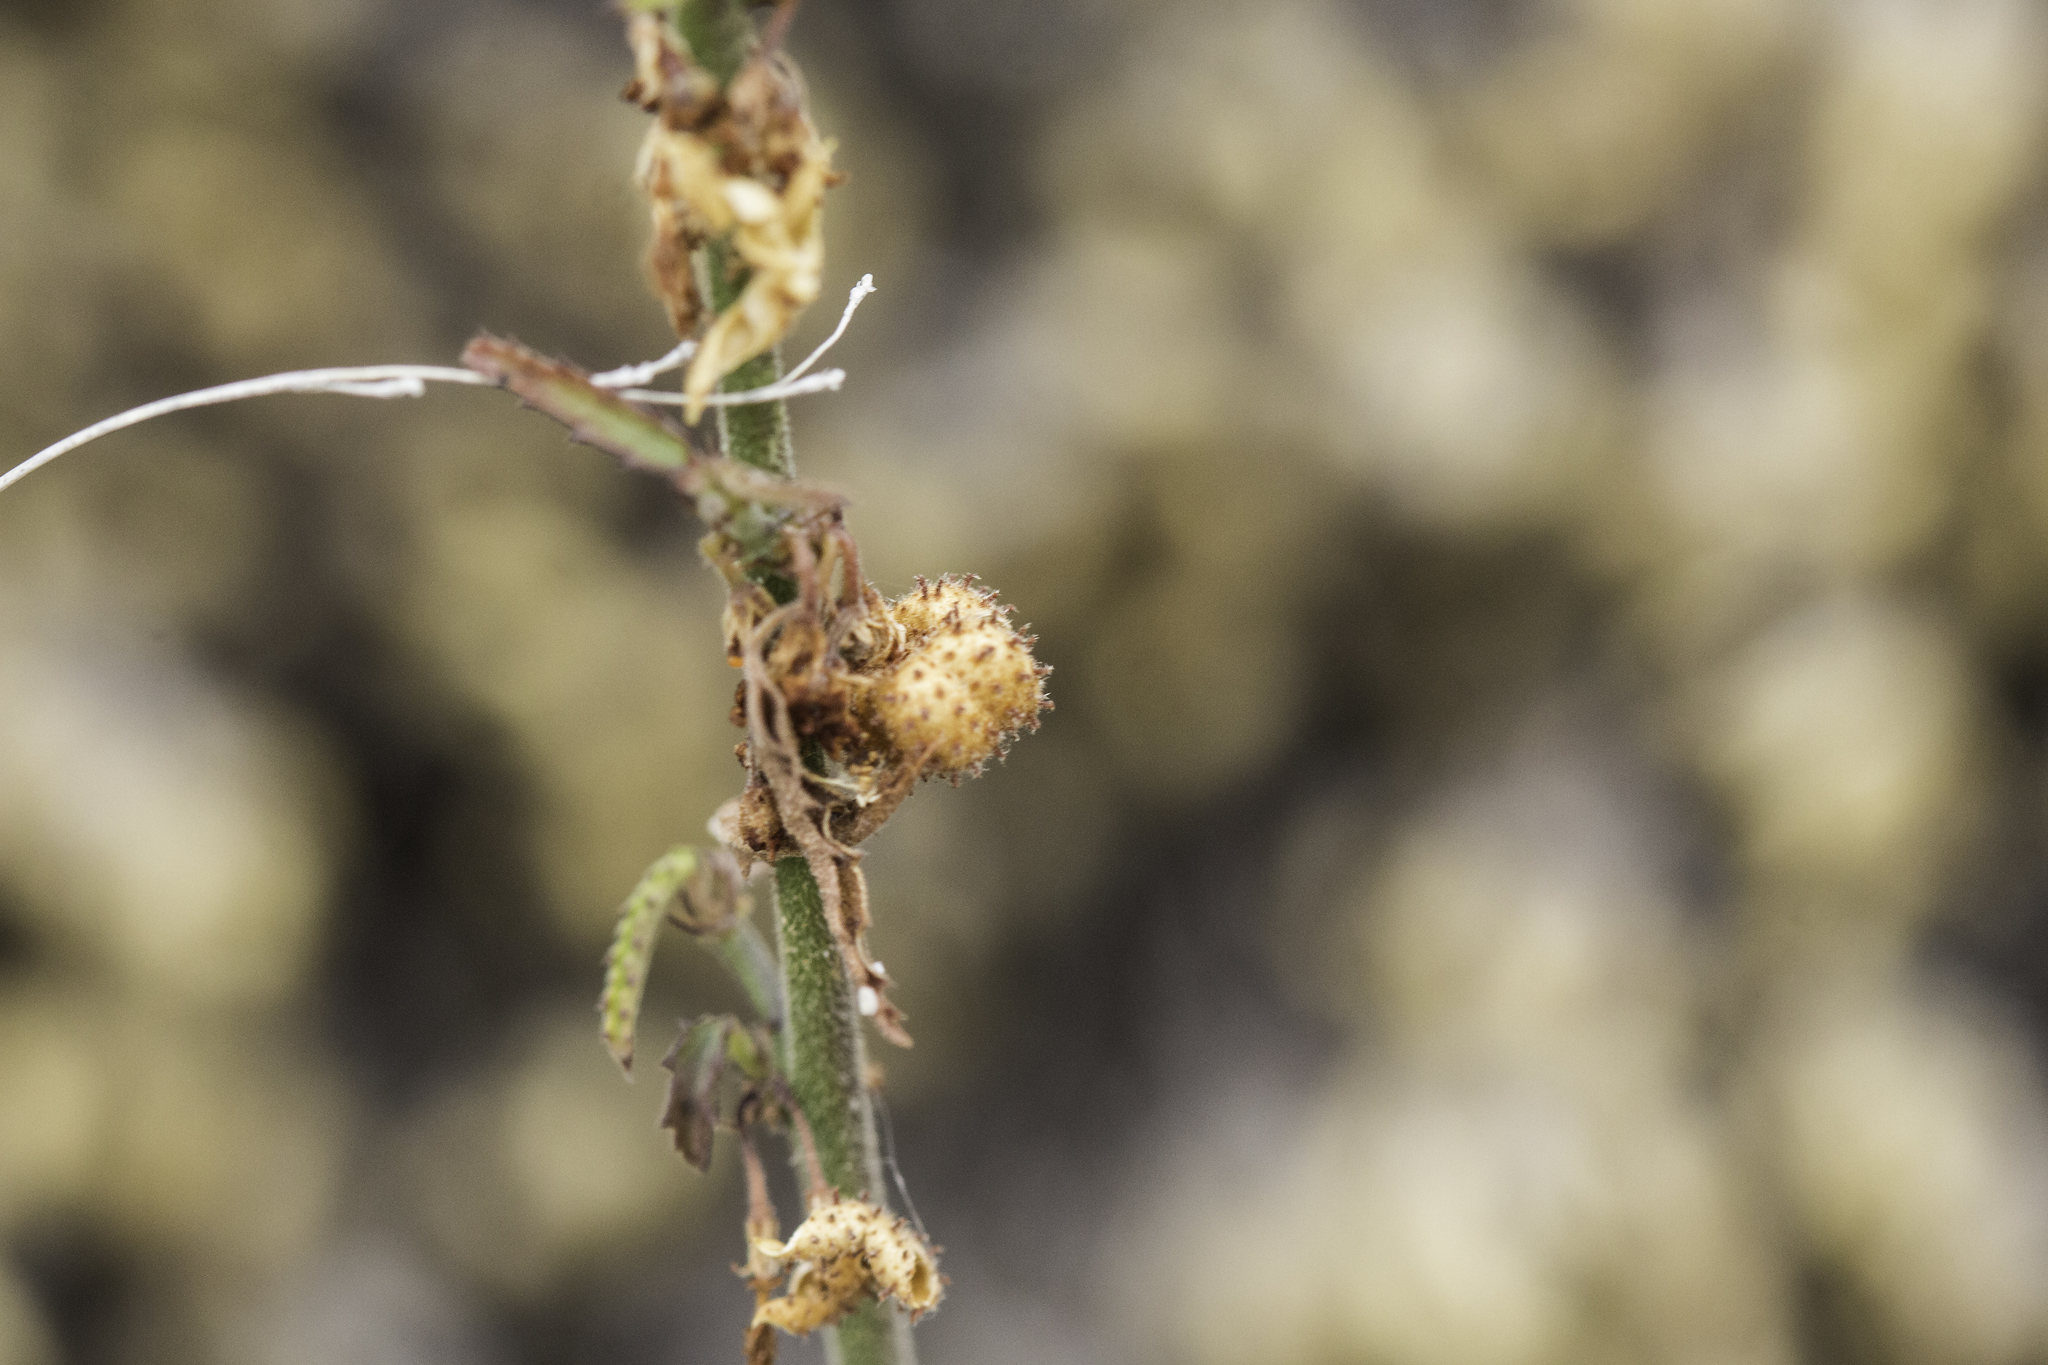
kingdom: Plantae
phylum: Tracheophyta
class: Magnoliopsida
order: Malvales
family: Malvaceae
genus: Ayenia
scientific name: Ayenia filiformis
